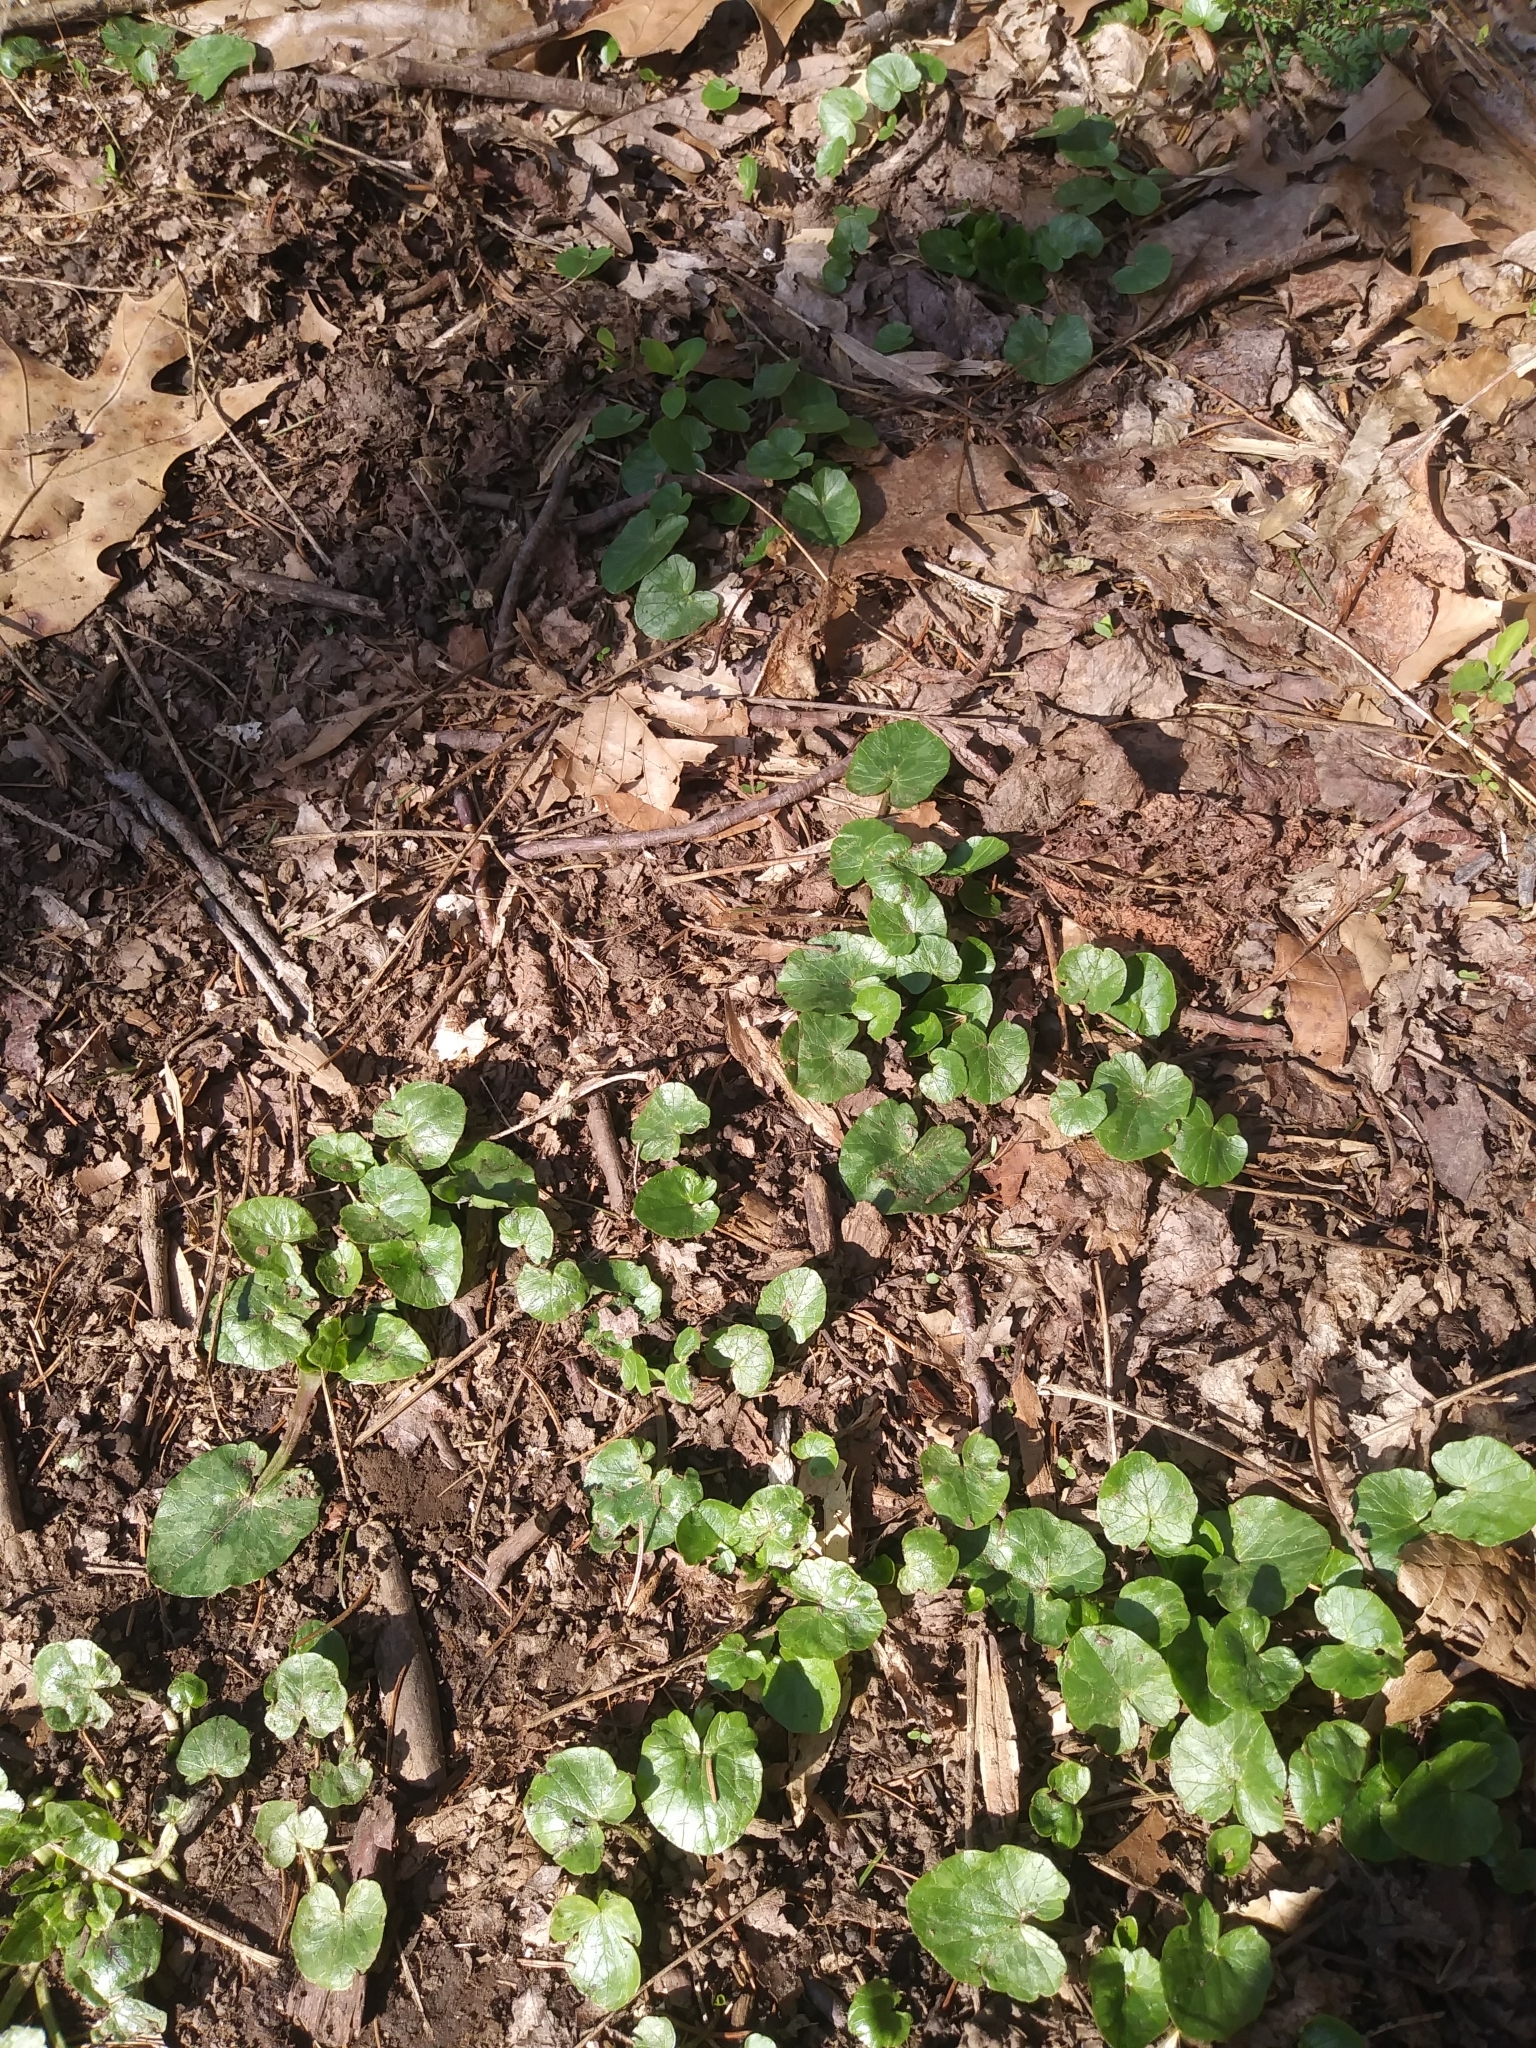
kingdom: Plantae
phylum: Tracheophyta
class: Magnoliopsida
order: Ranunculales
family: Ranunculaceae
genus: Ficaria
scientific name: Ficaria verna
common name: Lesser celandine
